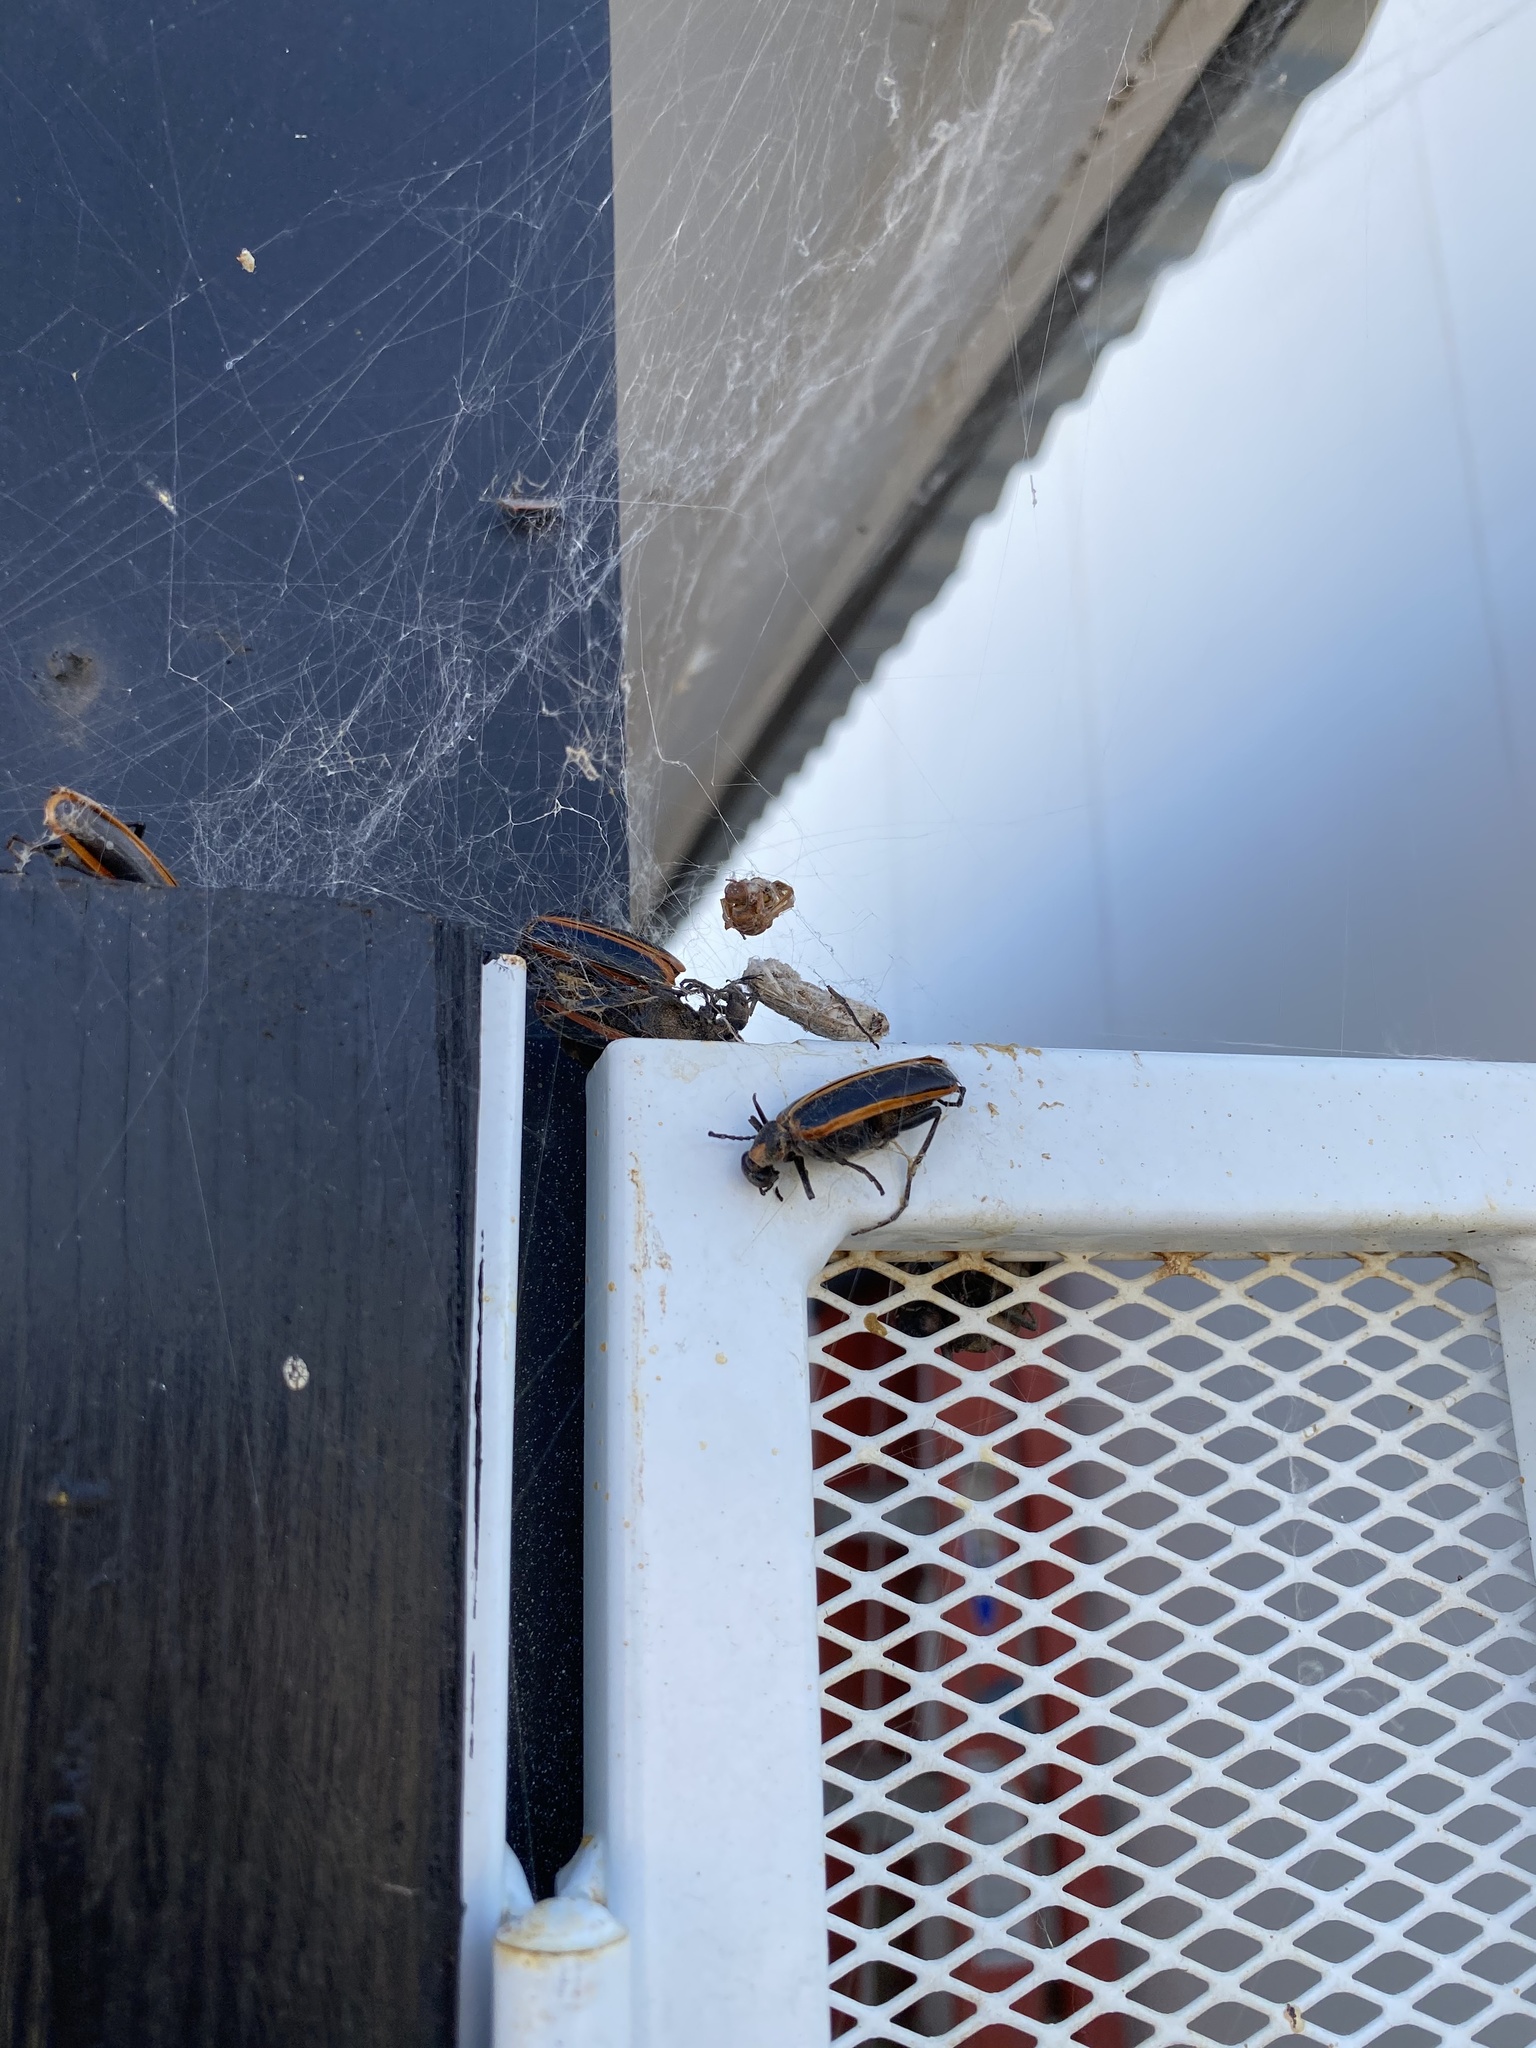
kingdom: Animalia
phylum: Arthropoda
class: Insecta
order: Coleoptera
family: Meloidae
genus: Pyrota
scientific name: Pyrota akhurstiana
